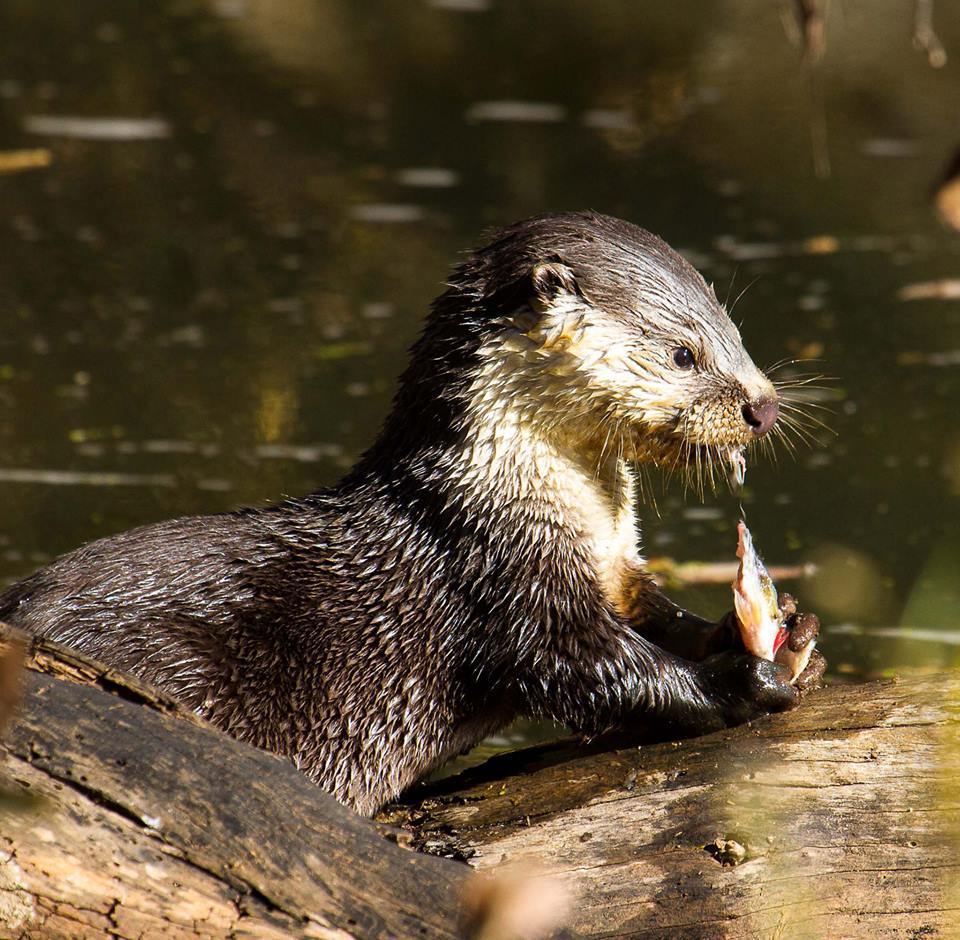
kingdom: Animalia
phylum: Chordata
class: Mammalia
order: Carnivora
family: Mustelidae
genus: Aonyx
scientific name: Aonyx capensis
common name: African clawless otter
